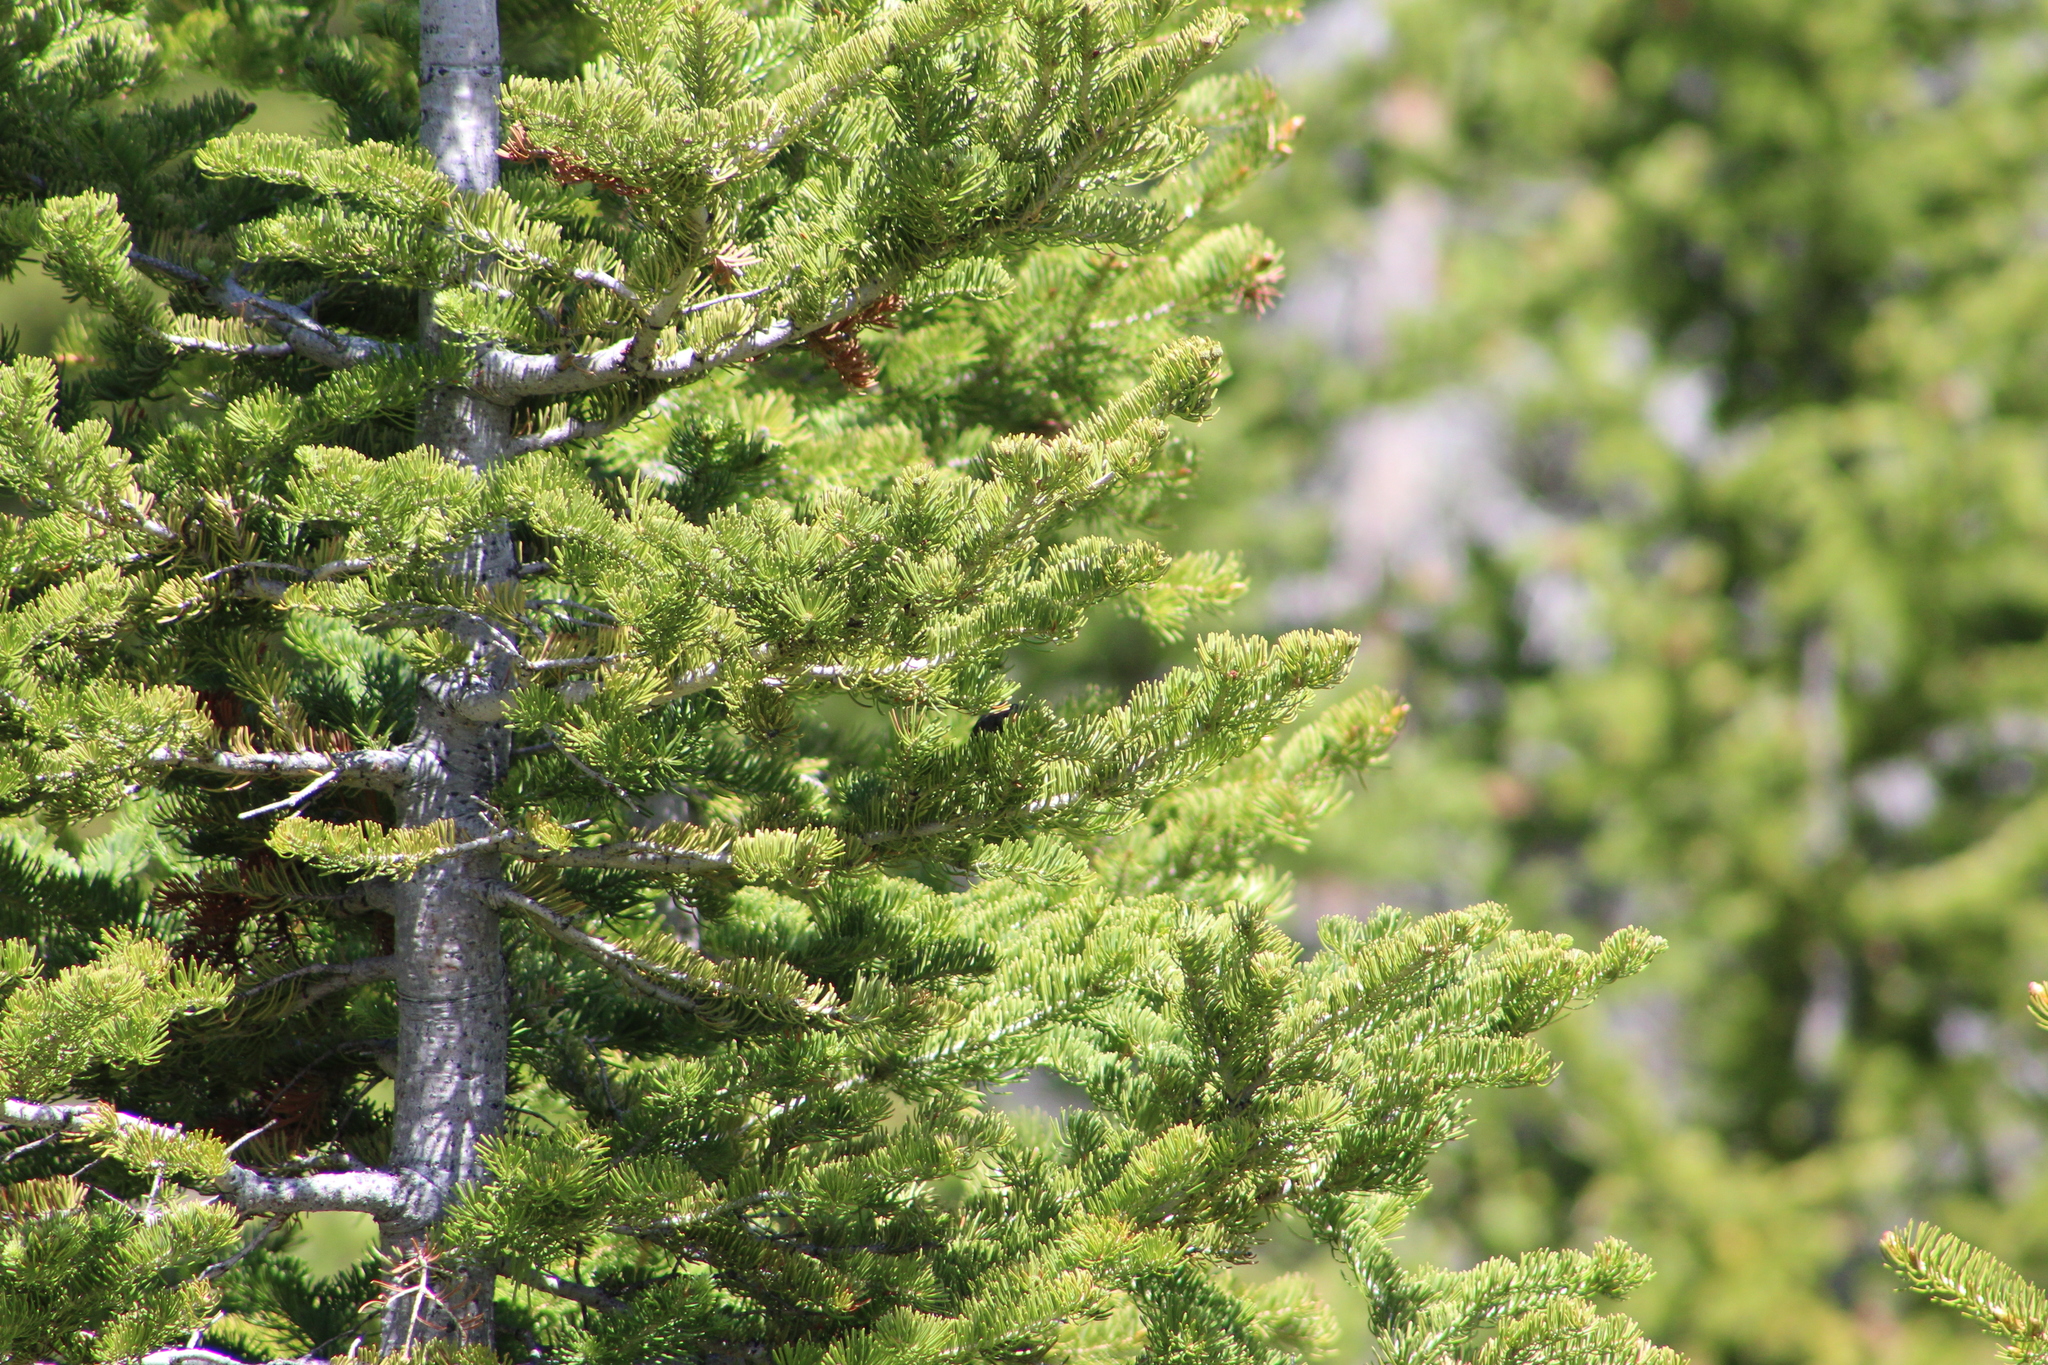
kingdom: Animalia
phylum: Chordata
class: Aves
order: Passeriformes
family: Passerellidae
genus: Melospiza
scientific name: Melospiza melodia
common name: Song sparrow
